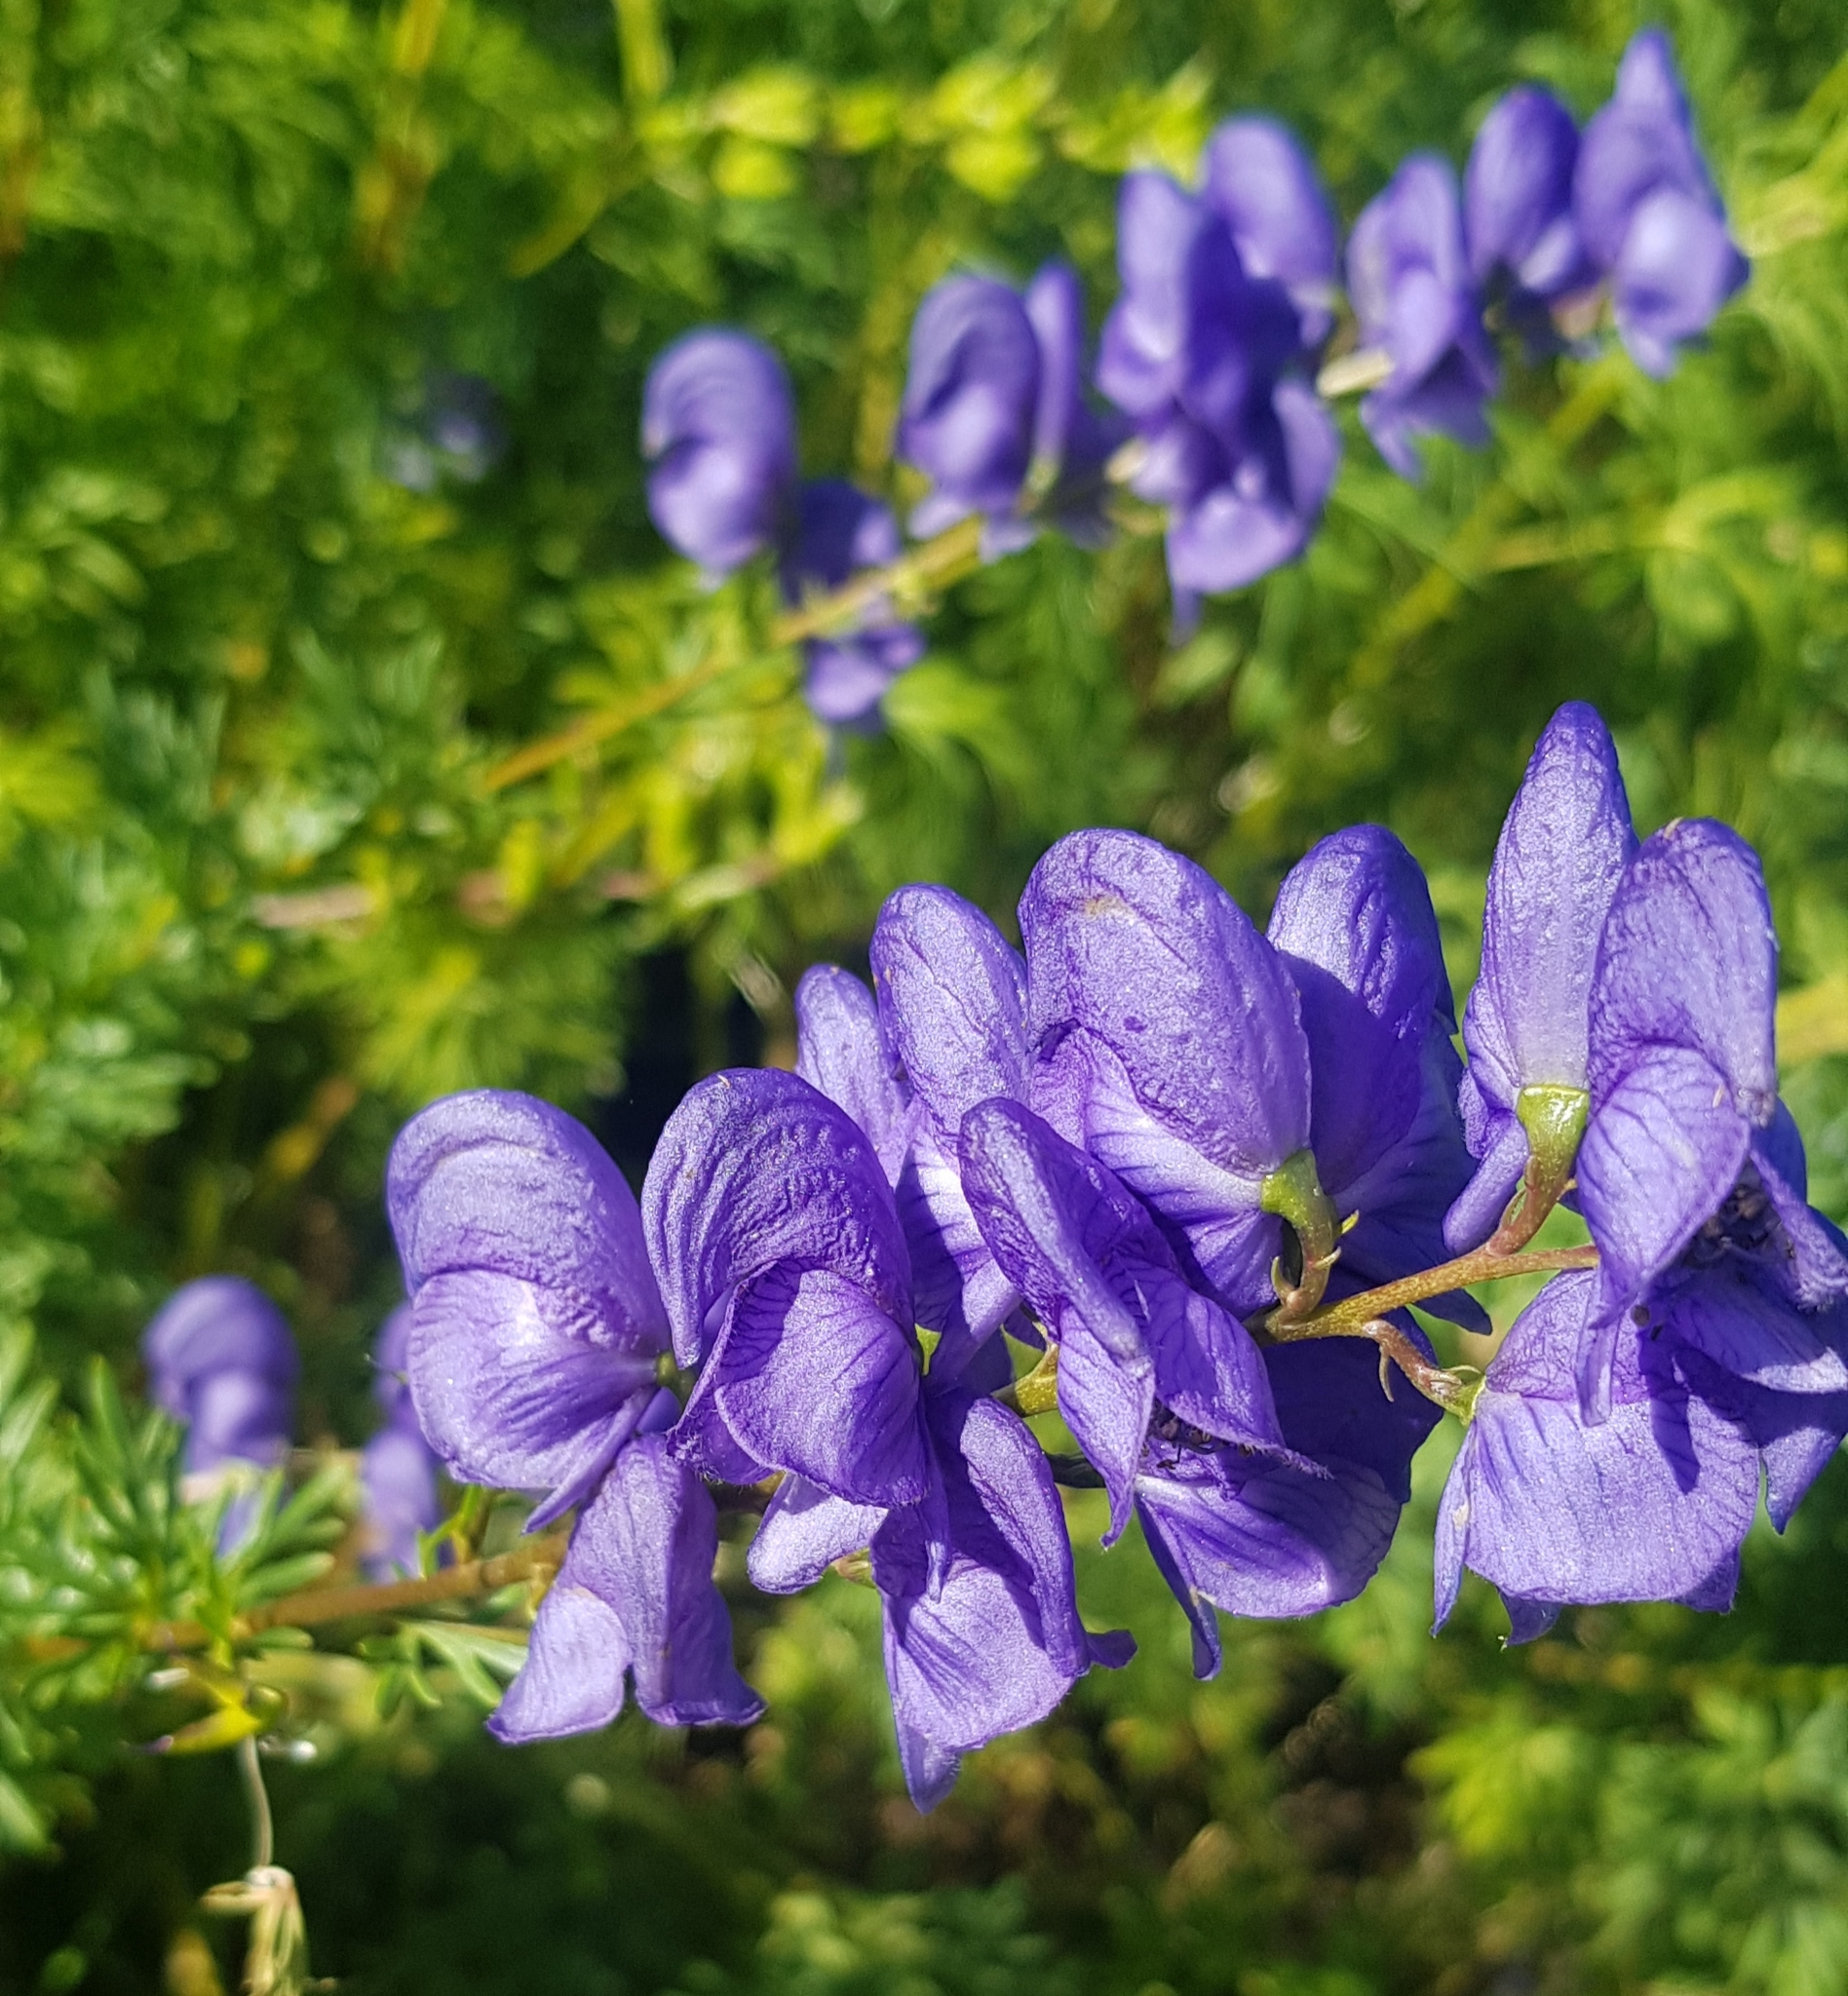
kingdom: Plantae
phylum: Tracheophyta
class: Magnoliopsida
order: Ranunculales
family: Ranunculaceae
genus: Aconitum
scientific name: Aconitum turczaninowii
